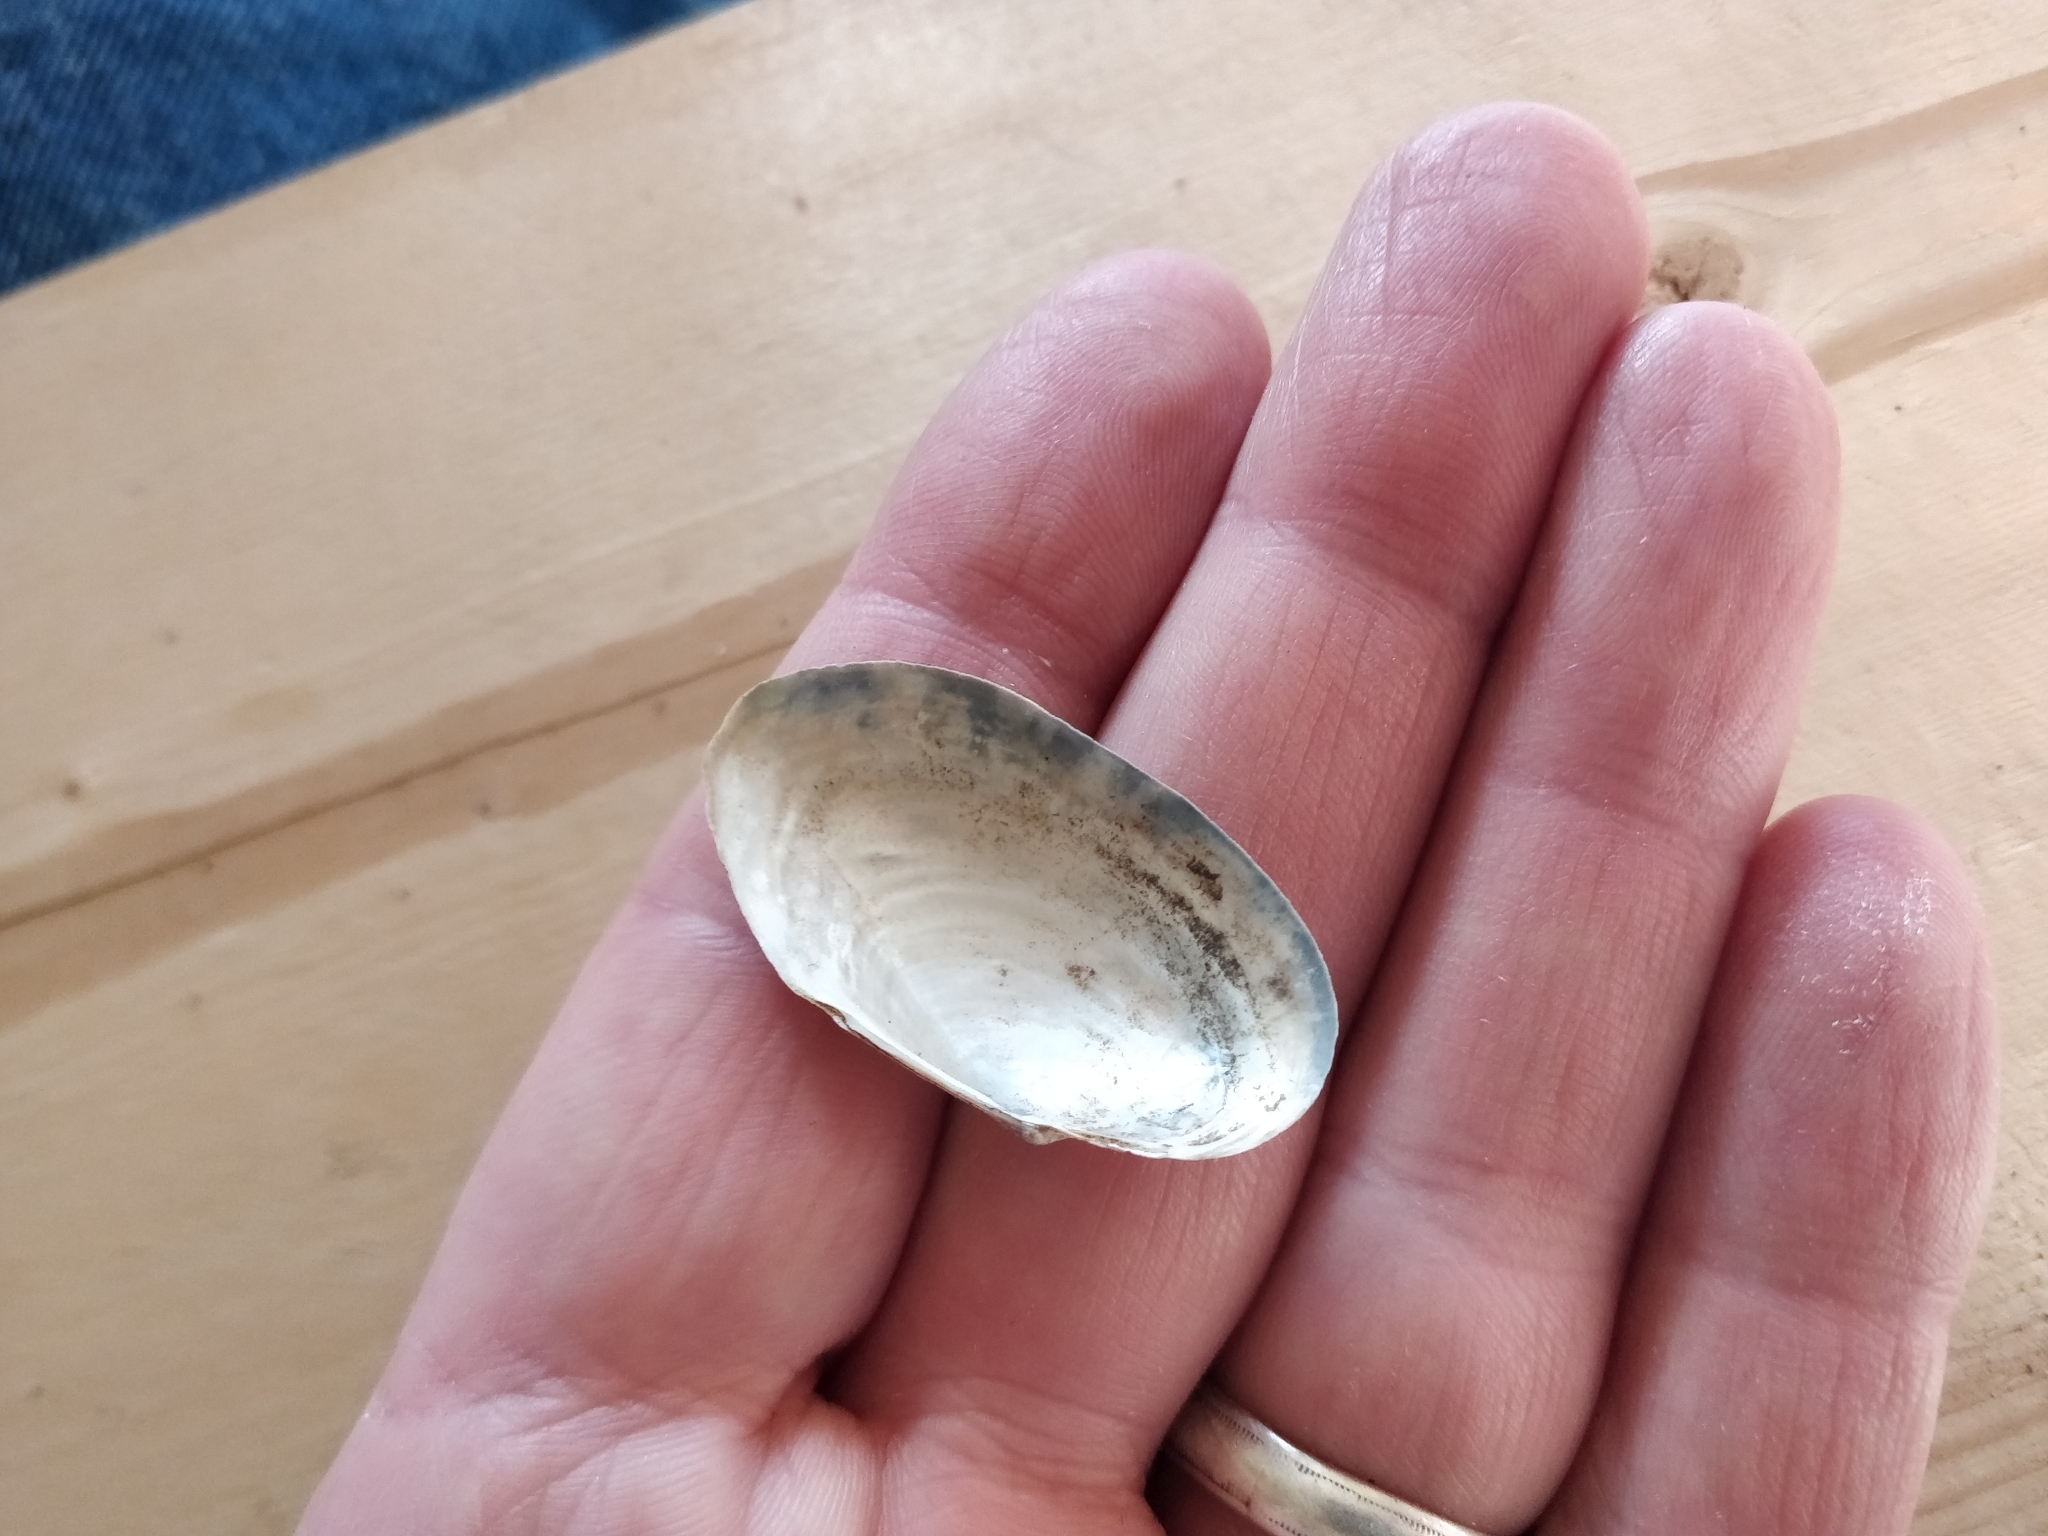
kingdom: Animalia
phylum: Mollusca
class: Bivalvia
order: Unionida
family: Unionidae
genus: Anodontoides
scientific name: Anodontoides ferussacianus
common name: Cylindrical papershell
